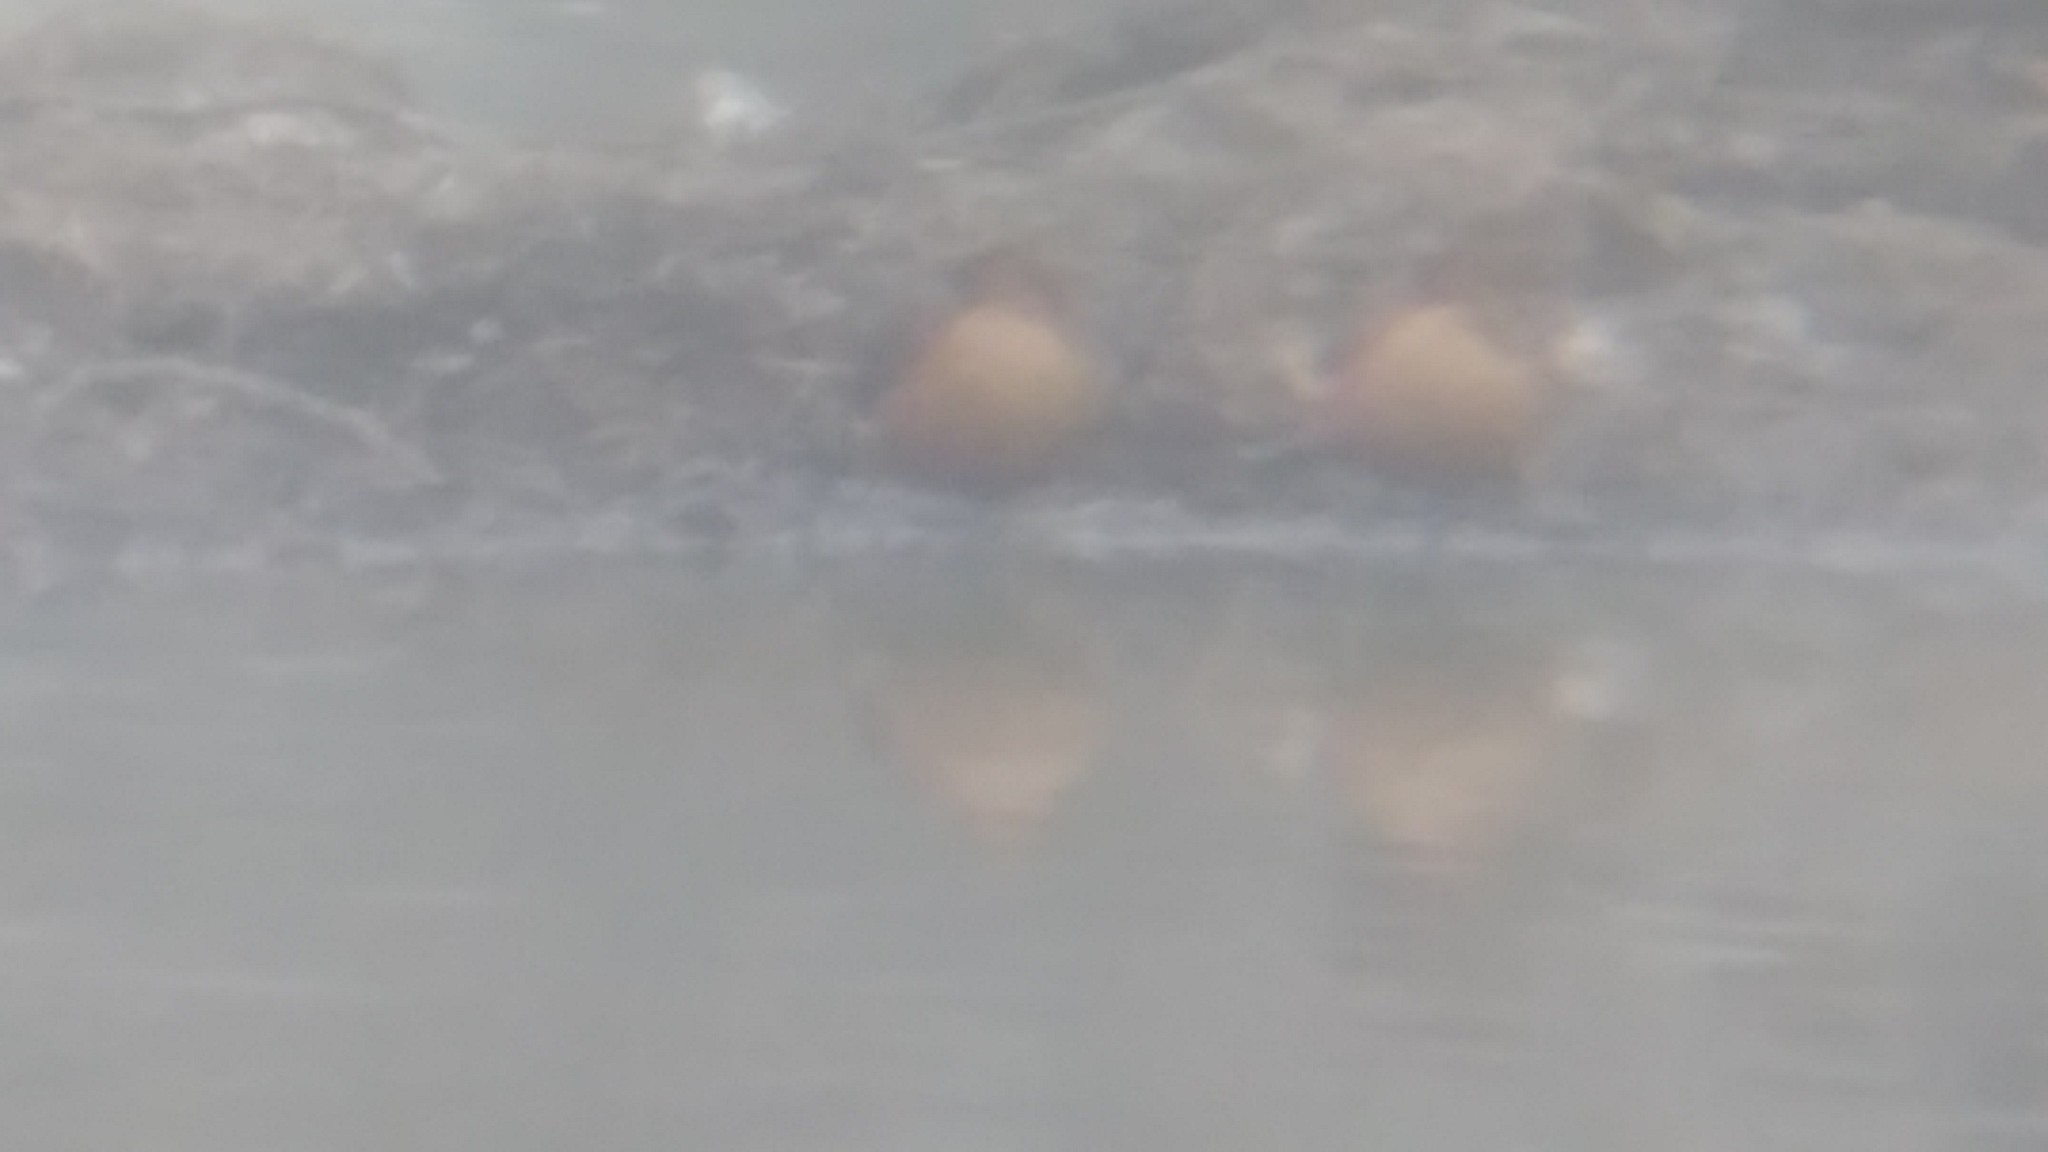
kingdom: Animalia
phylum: Chordata
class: Aves
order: Anseriformes
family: Anatidae
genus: Dendrocygna
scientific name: Dendrocygna bicolor
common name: Fulvous whistling duck
